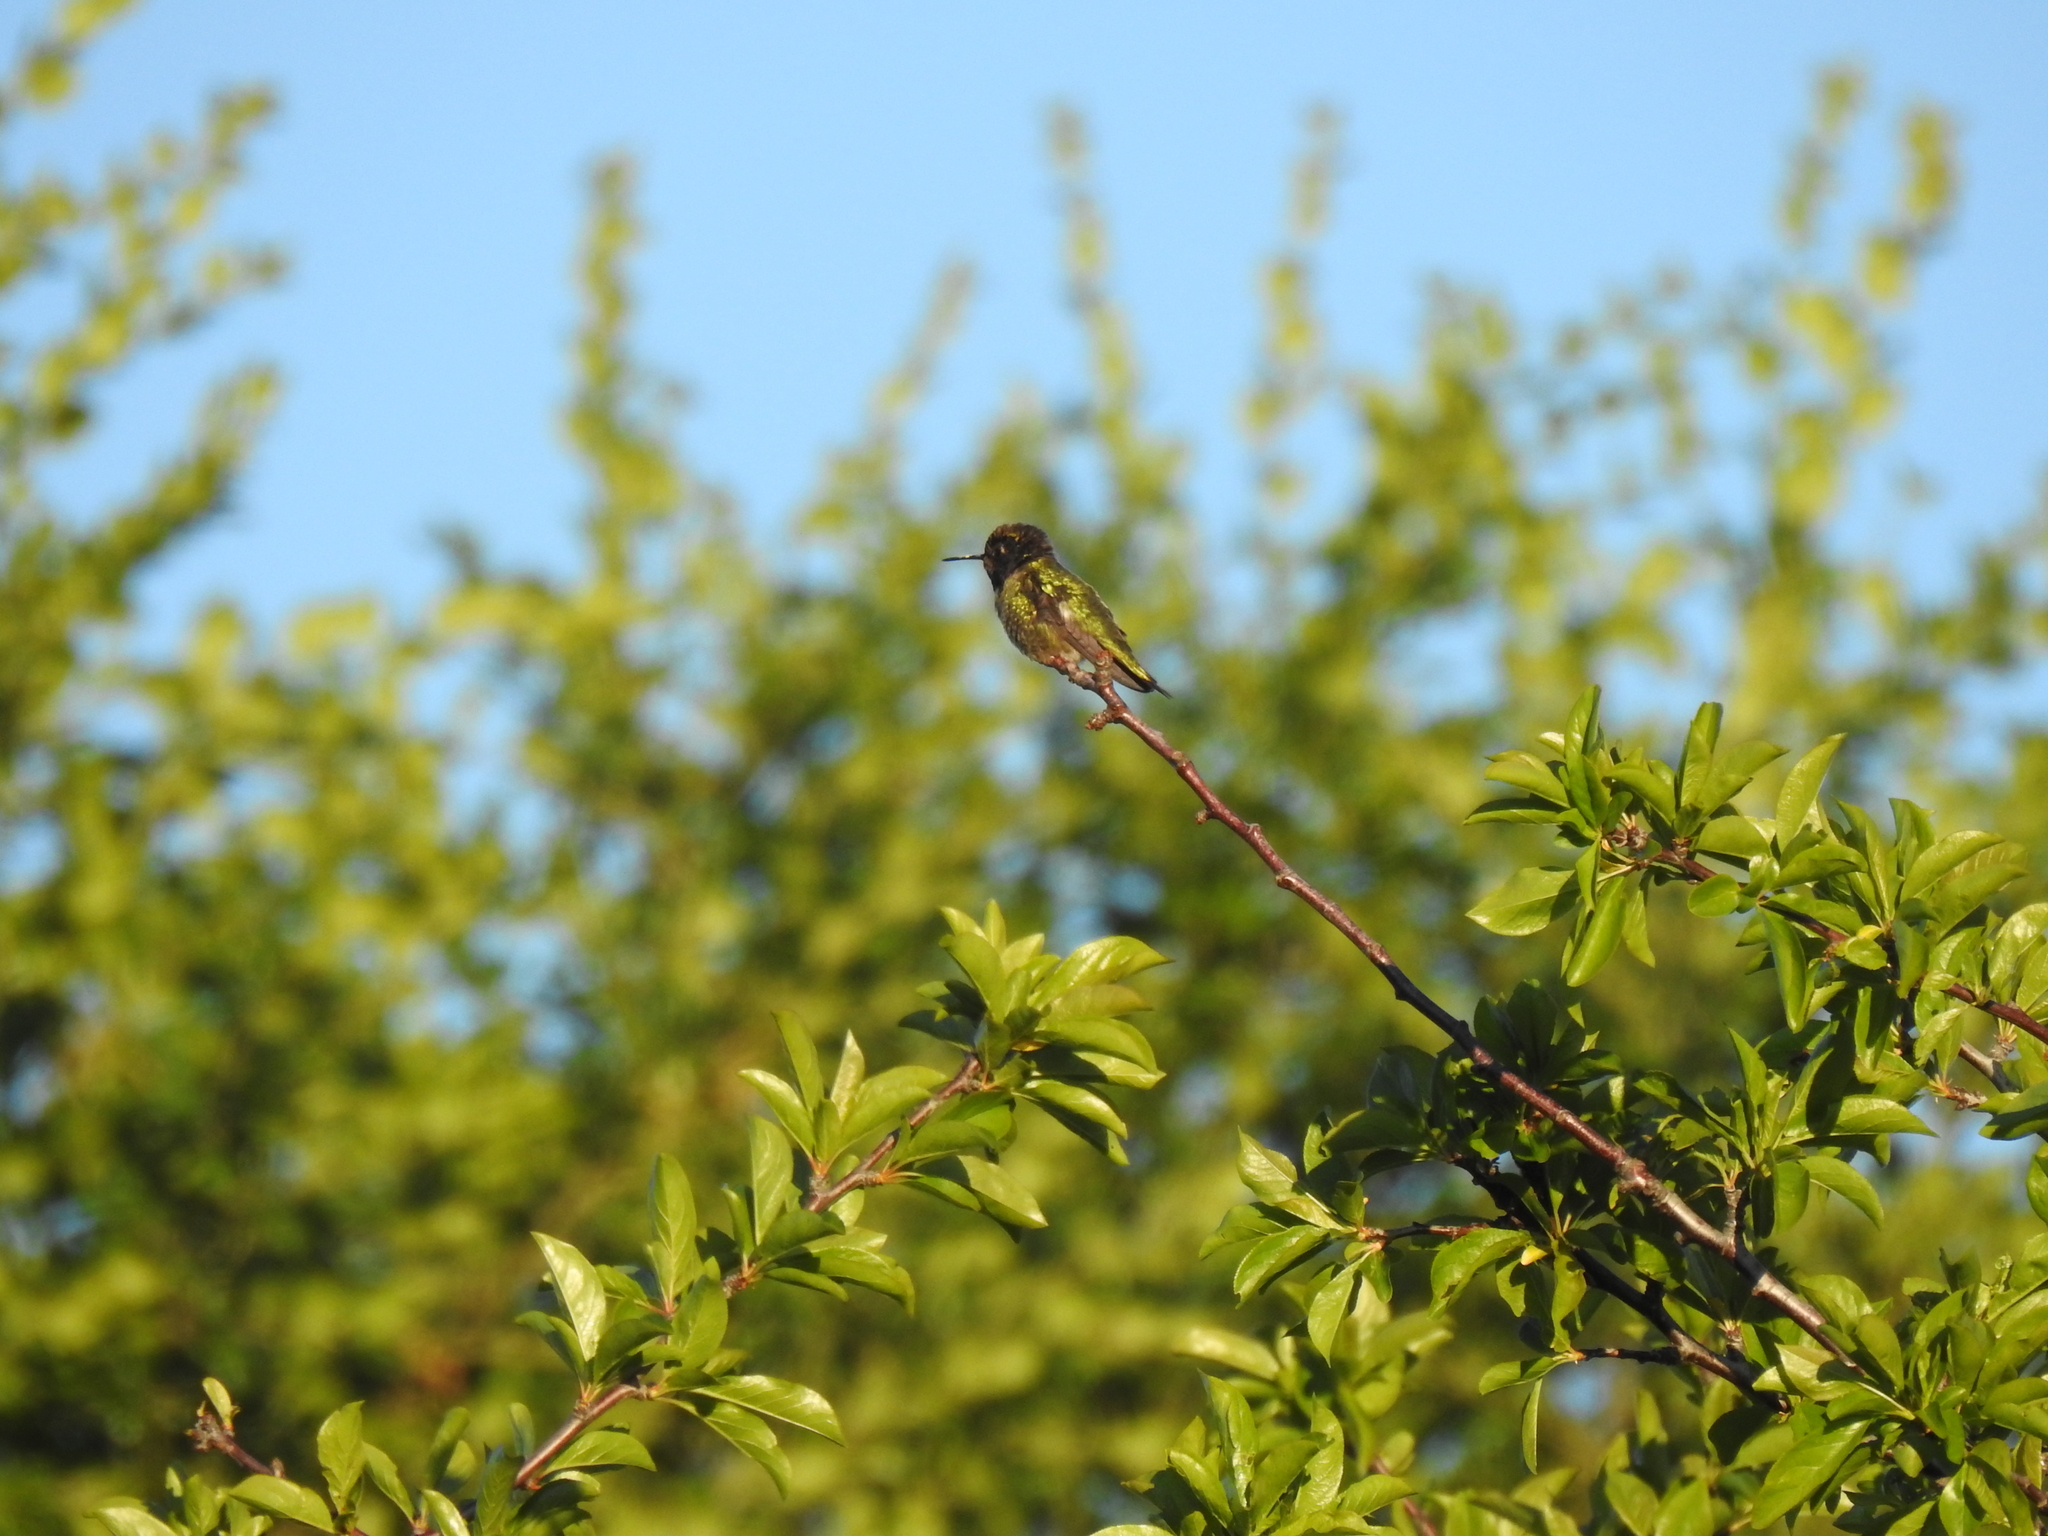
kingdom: Animalia
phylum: Chordata
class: Aves
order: Apodiformes
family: Trochilidae
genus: Calypte
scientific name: Calypte anna
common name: Anna's hummingbird
